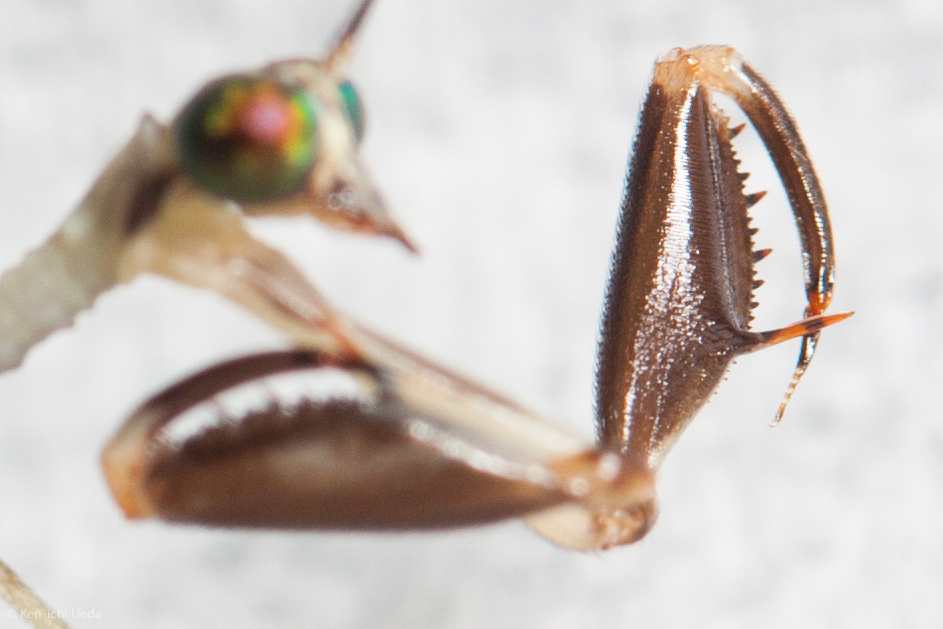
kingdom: Animalia
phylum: Arthropoda
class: Insecta
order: Neuroptera
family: Mantispidae
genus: Dicromantispa
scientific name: Dicromantispa sayi
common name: Say's mantidfly
